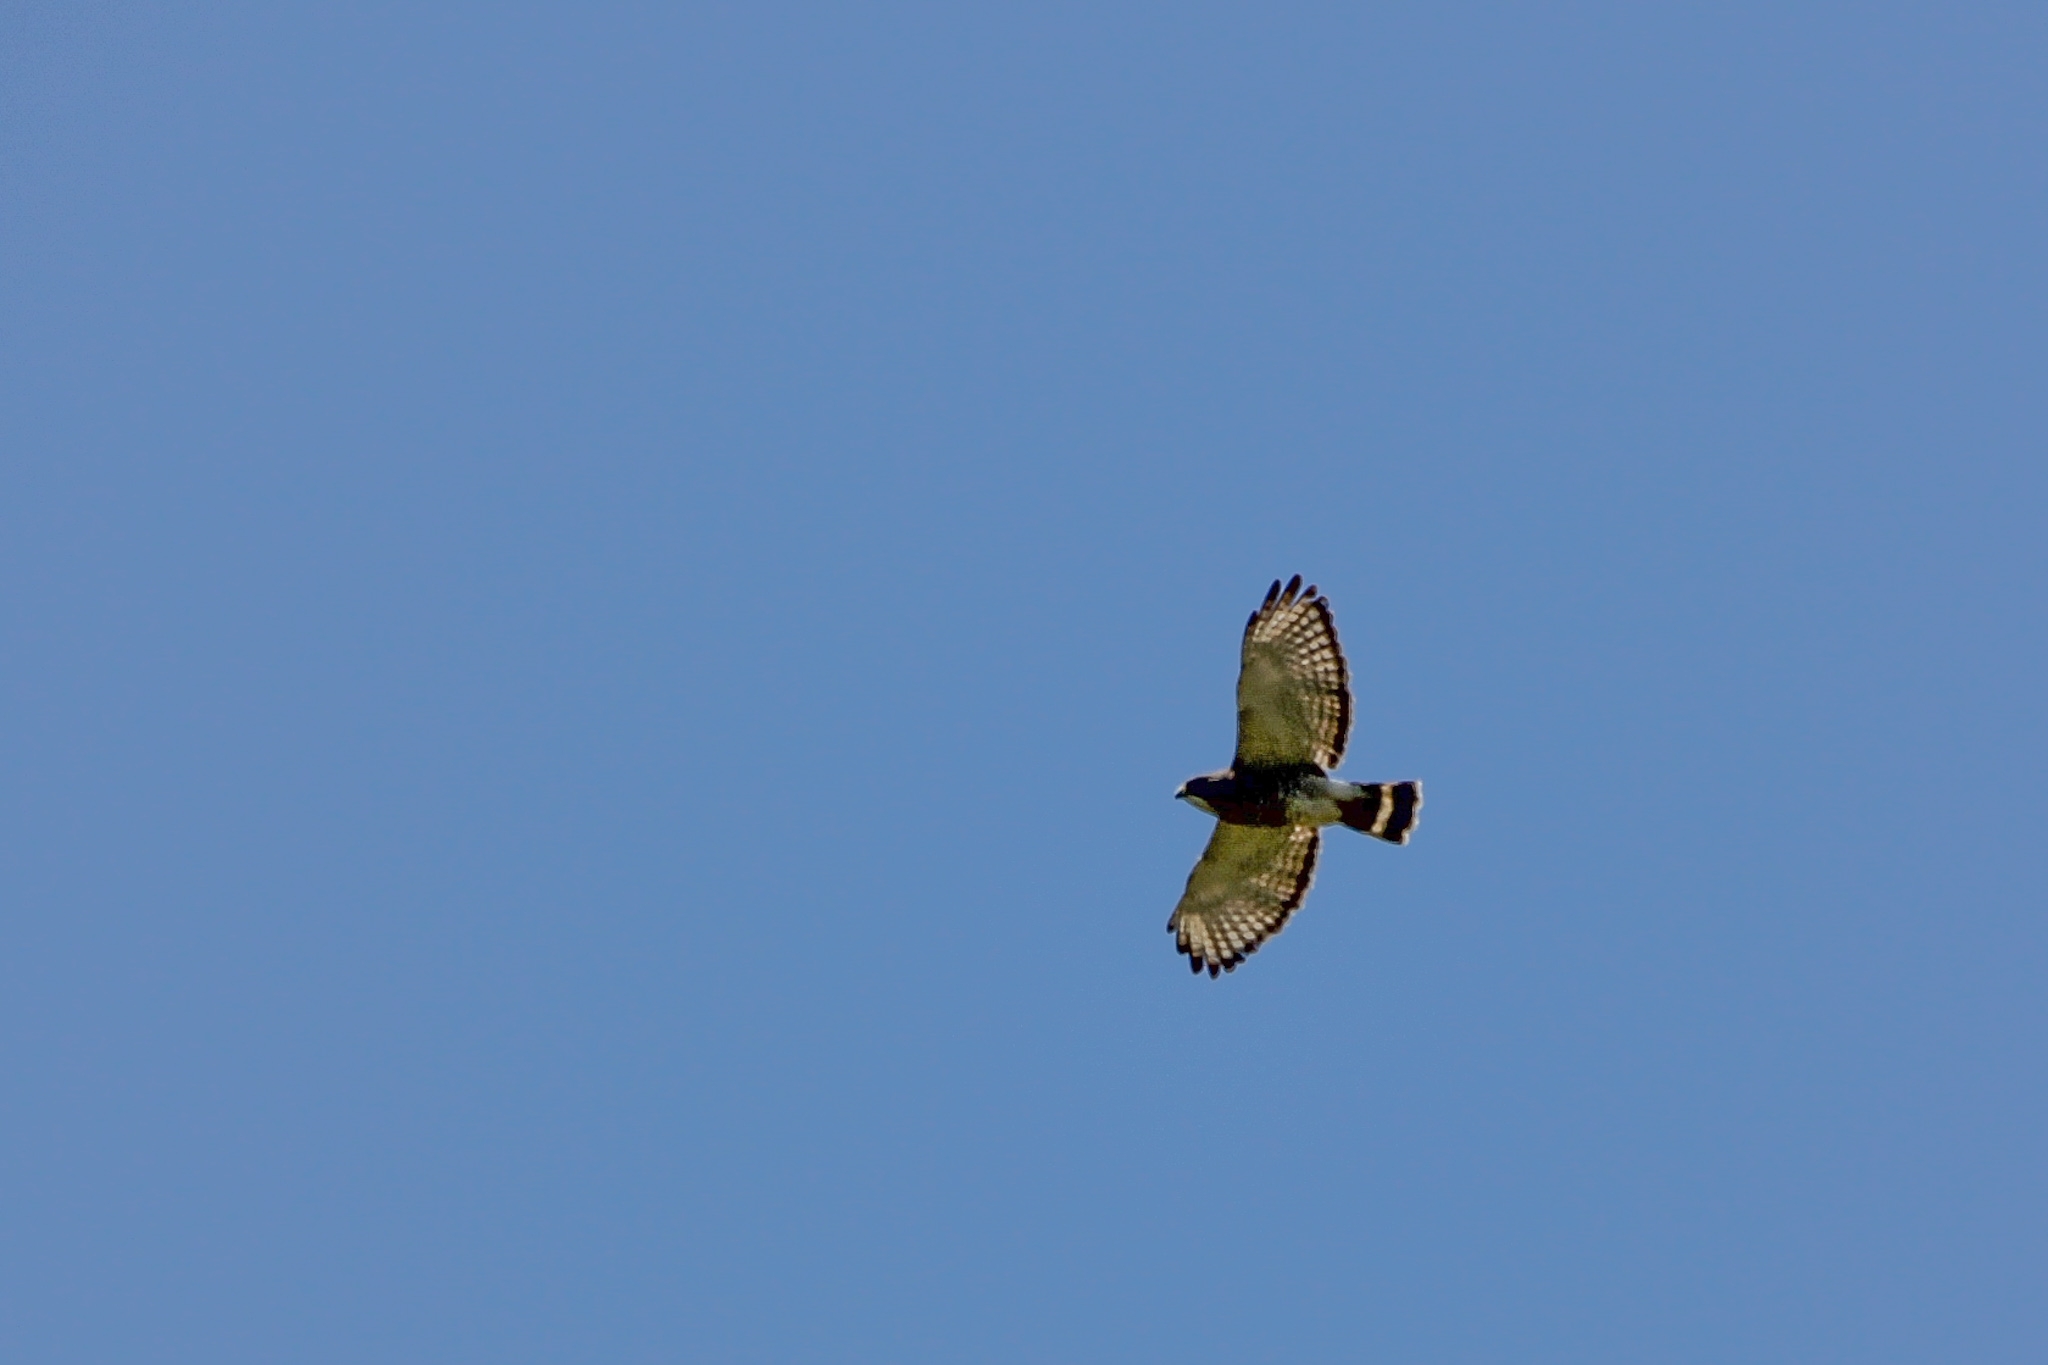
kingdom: Animalia
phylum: Chordata
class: Aves
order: Accipitriformes
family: Accipitridae
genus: Buteo
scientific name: Buteo platypterus
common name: Broad-winged hawk
